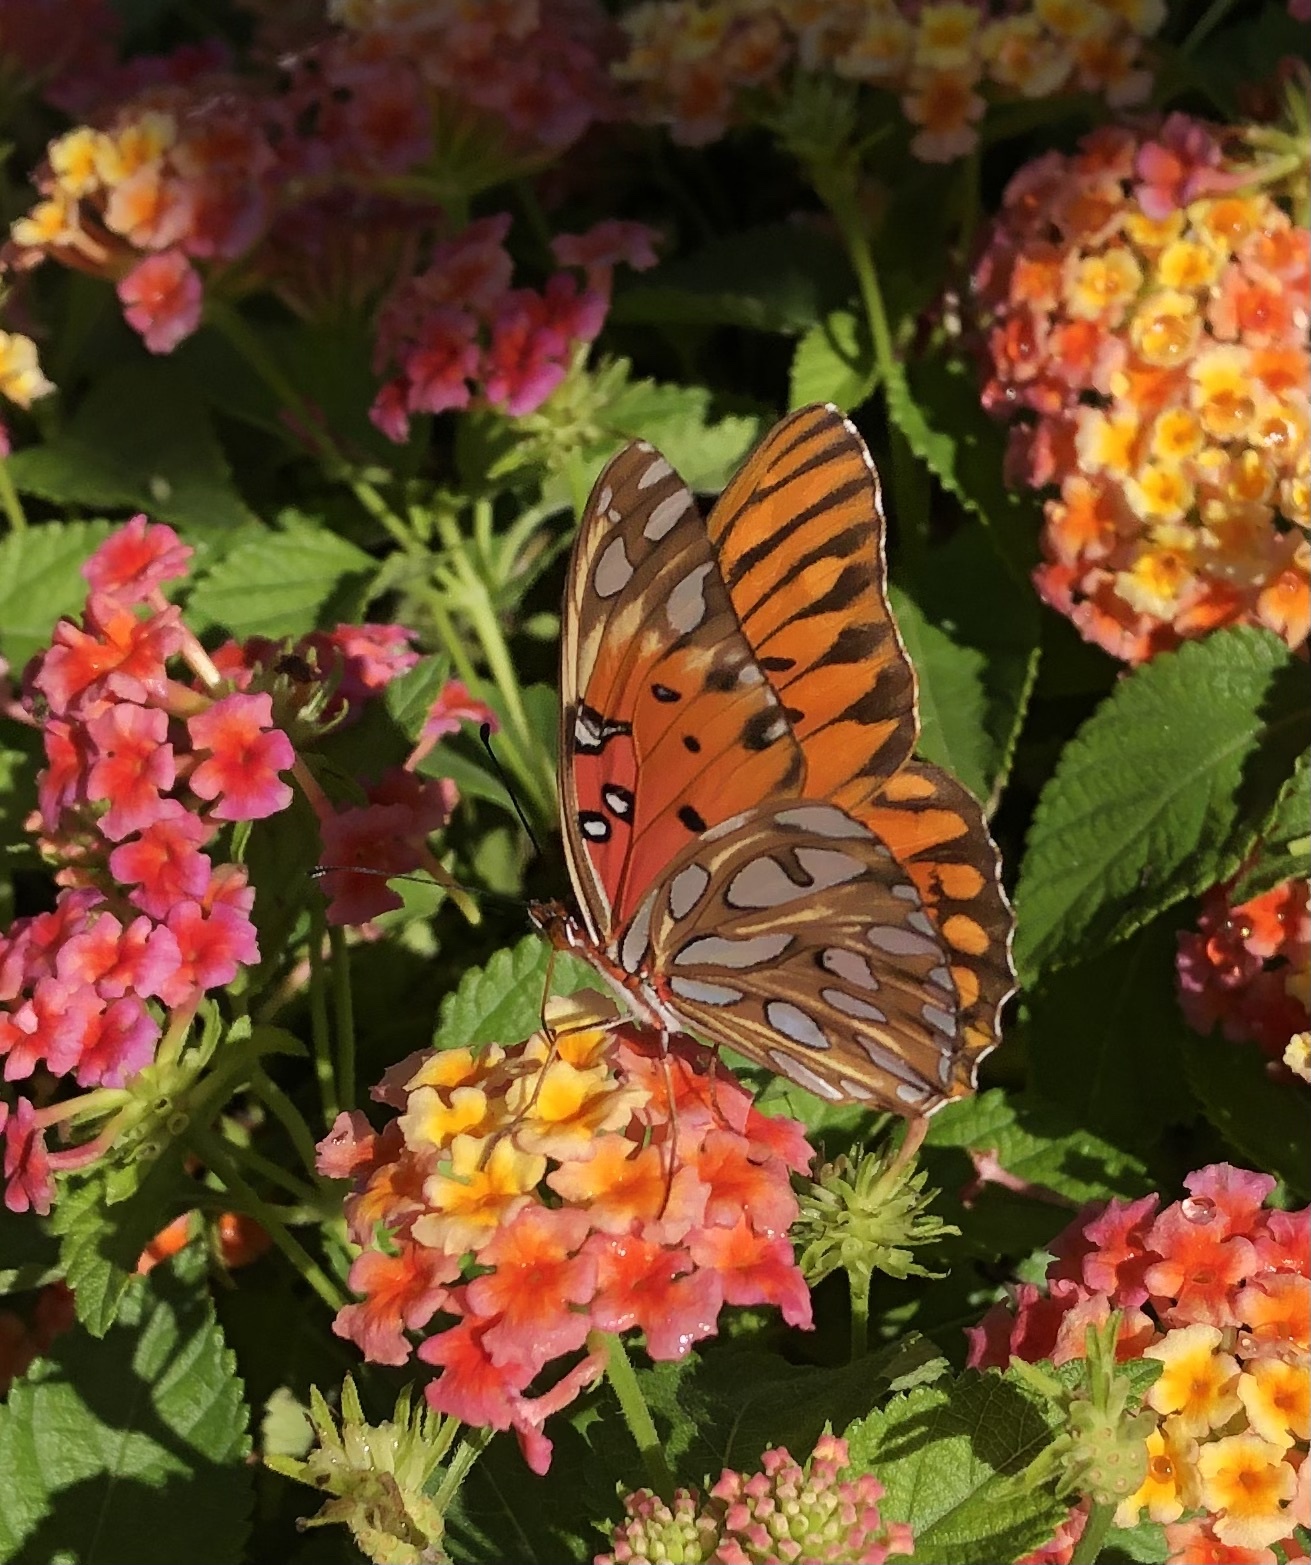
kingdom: Animalia
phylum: Arthropoda
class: Insecta
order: Lepidoptera
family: Nymphalidae
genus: Dione
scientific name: Dione vanillae
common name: Gulf fritillary
